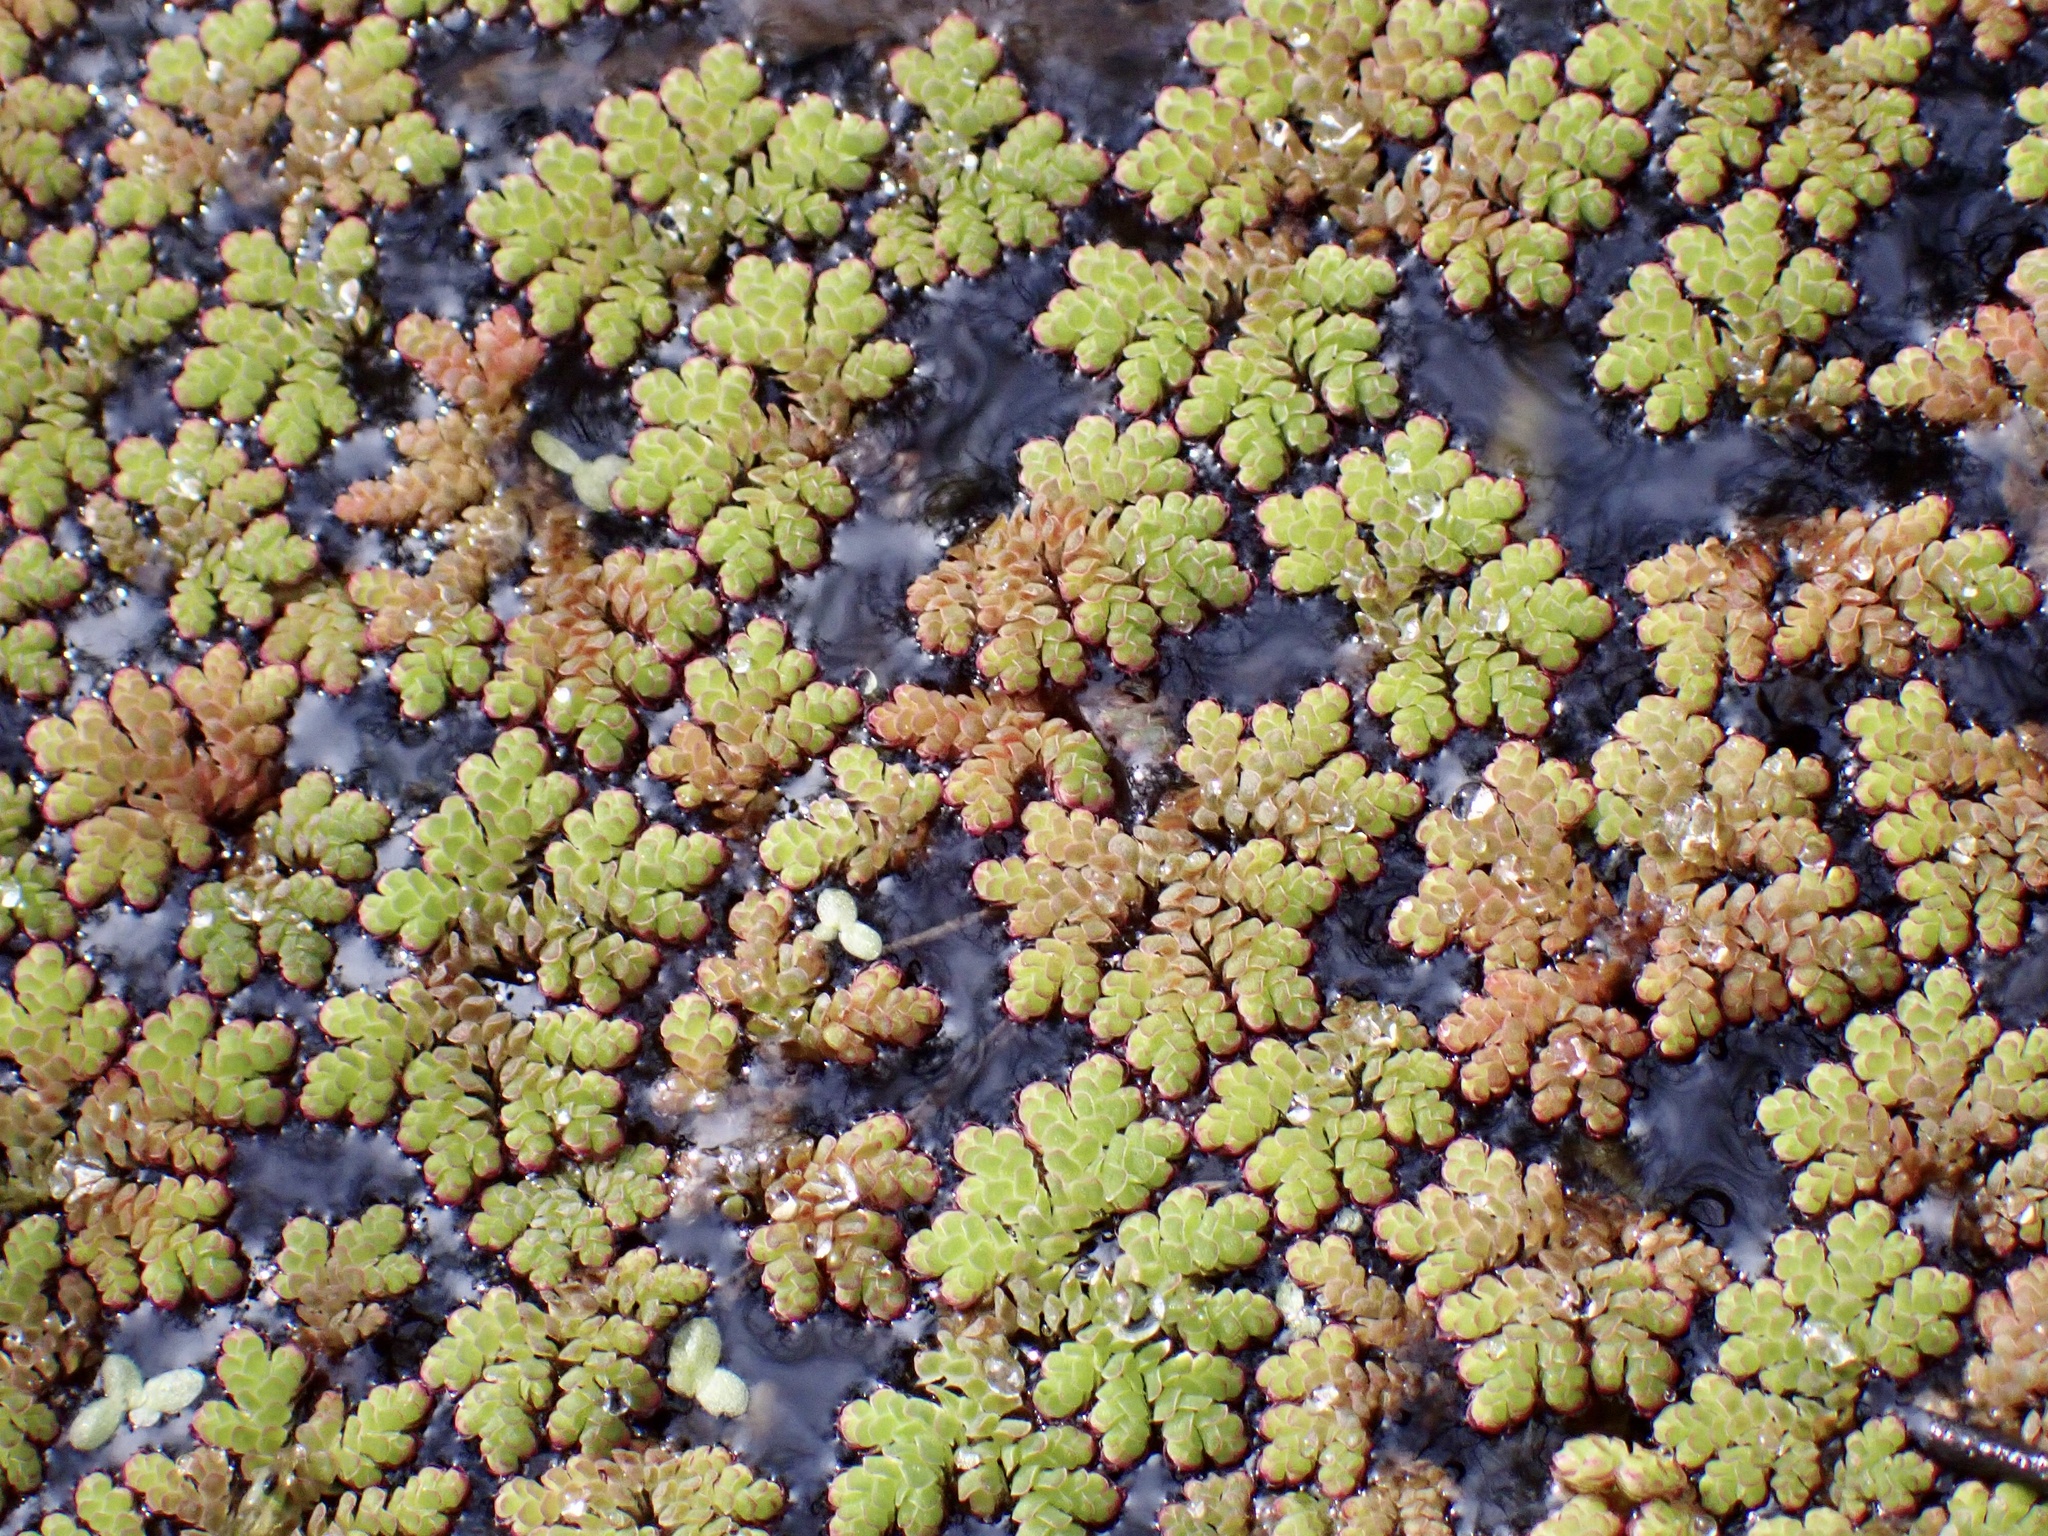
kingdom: Plantae
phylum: Tracheophyta
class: Polypodiopsida
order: Salviniales
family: Salviniaceae
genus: Azolla
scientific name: Azolla filiculoides
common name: Water fern
